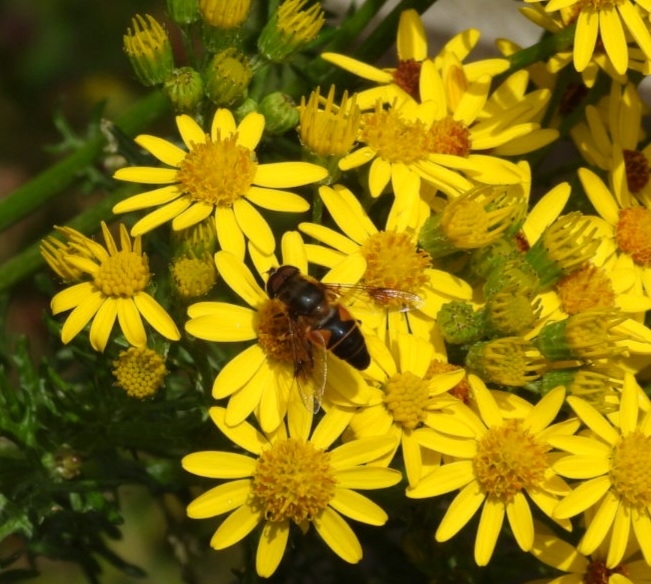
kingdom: Animalia
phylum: Arthropoda
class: Insecta
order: Diptera
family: Syrphidae
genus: Eristalis
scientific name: Eristalis pertinax
